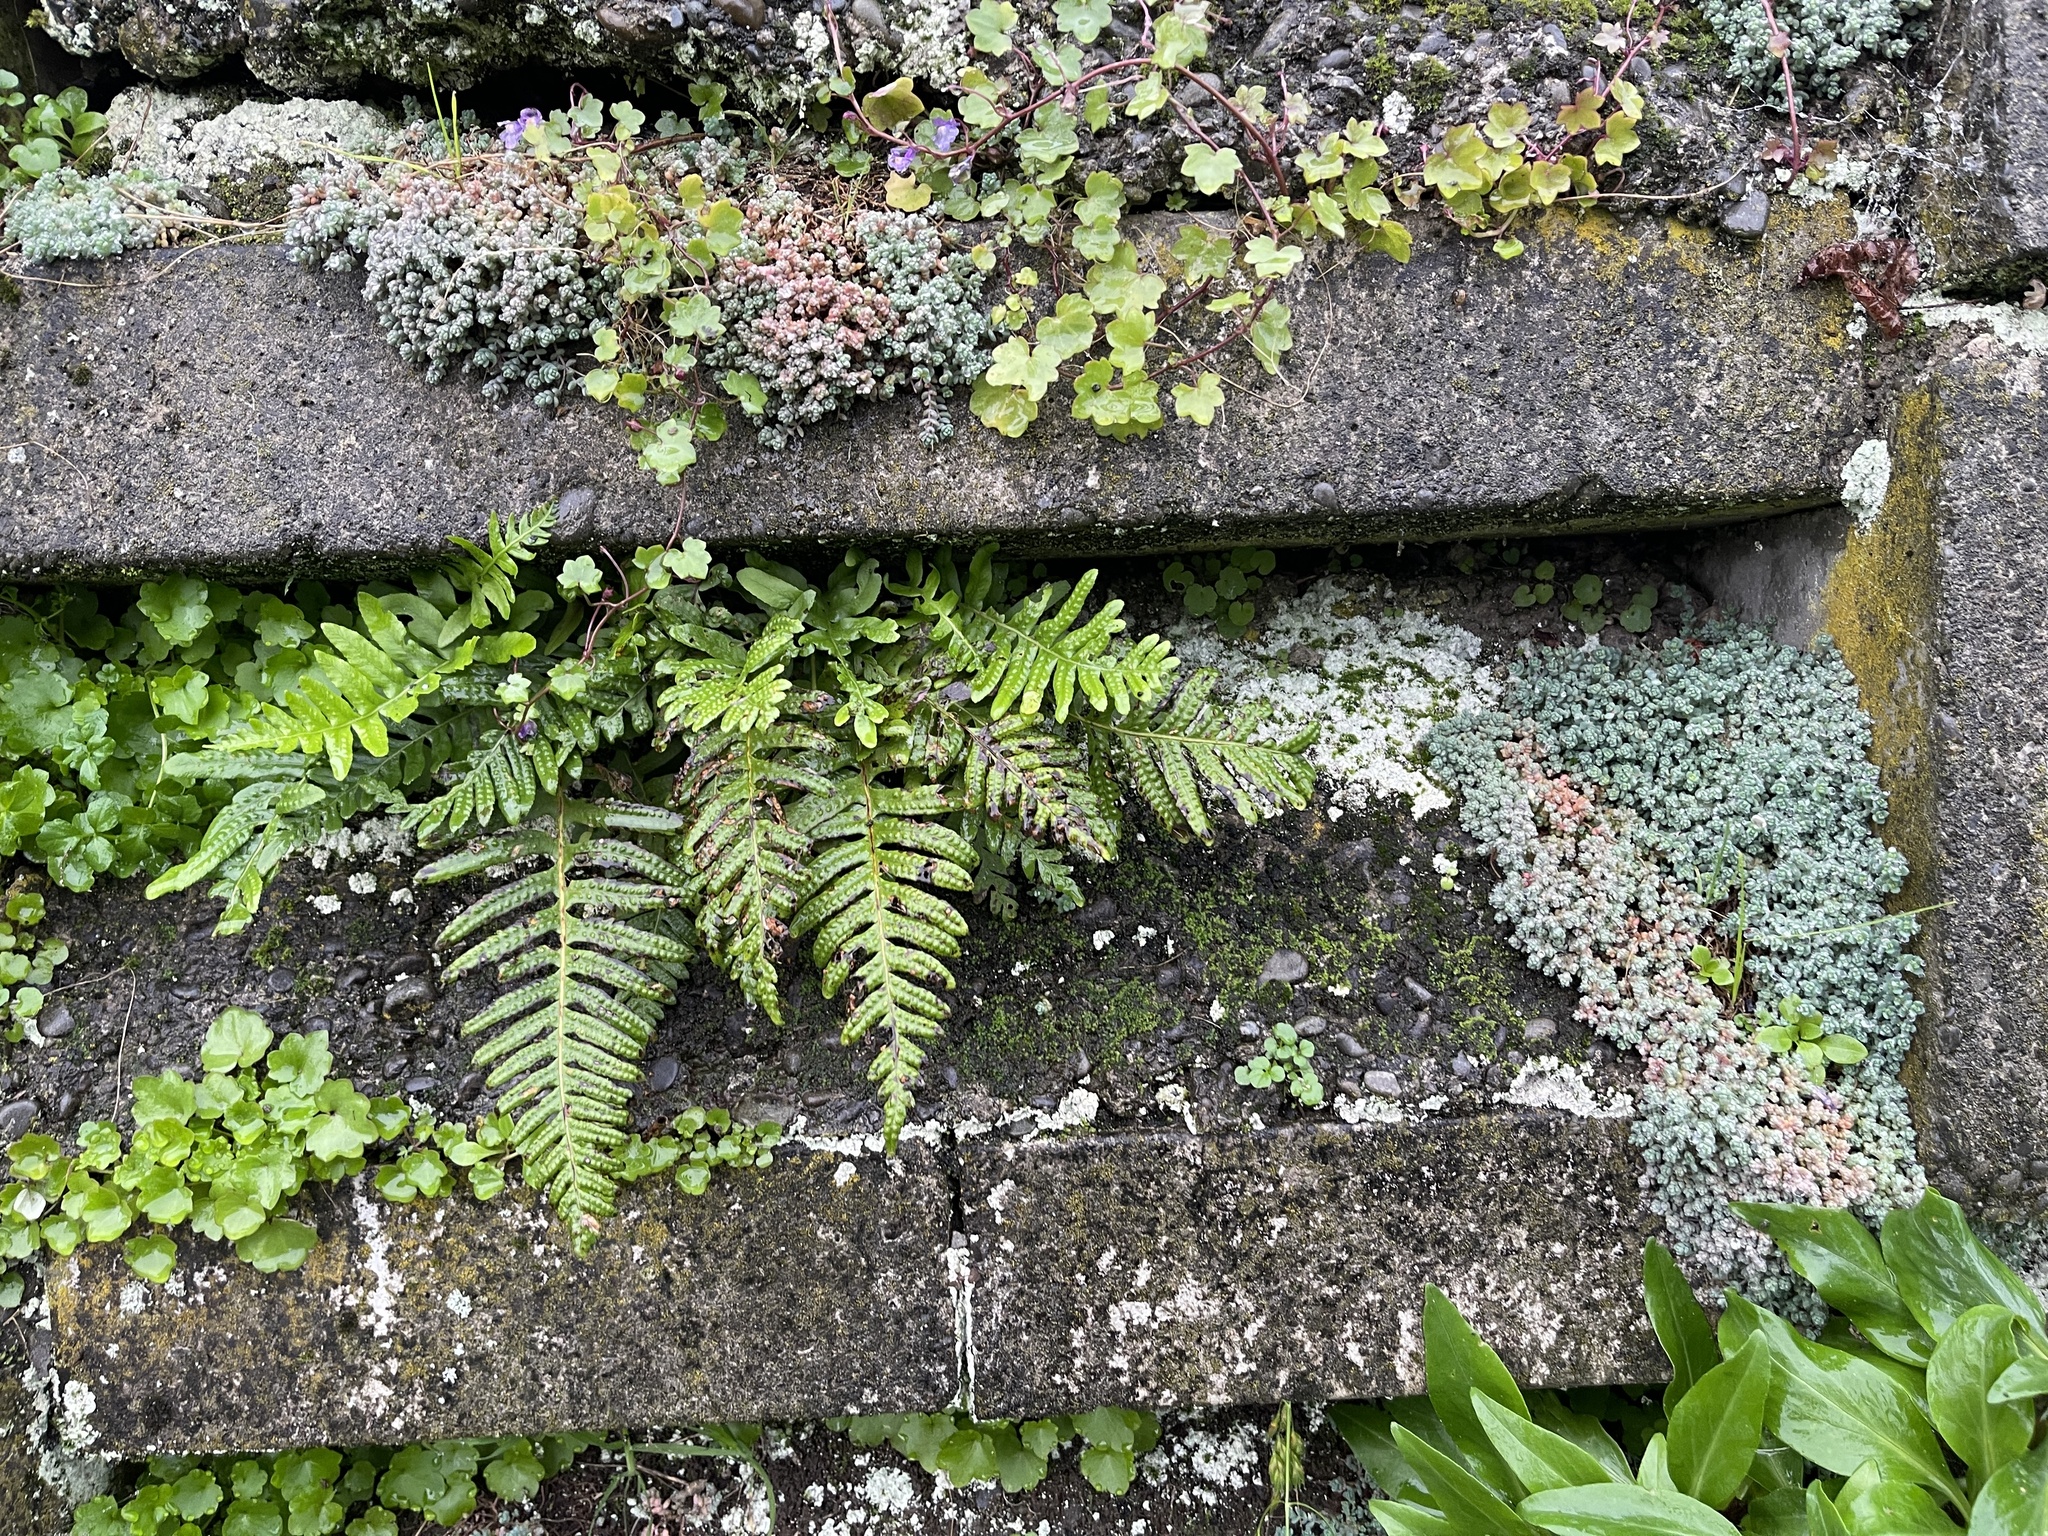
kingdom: Plantae
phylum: Tracheophyta
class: Polypodiopsida
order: Polypodiales
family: Polypodiaceae
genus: Polypodium
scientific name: Polypodium vulgare
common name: Common polypody
